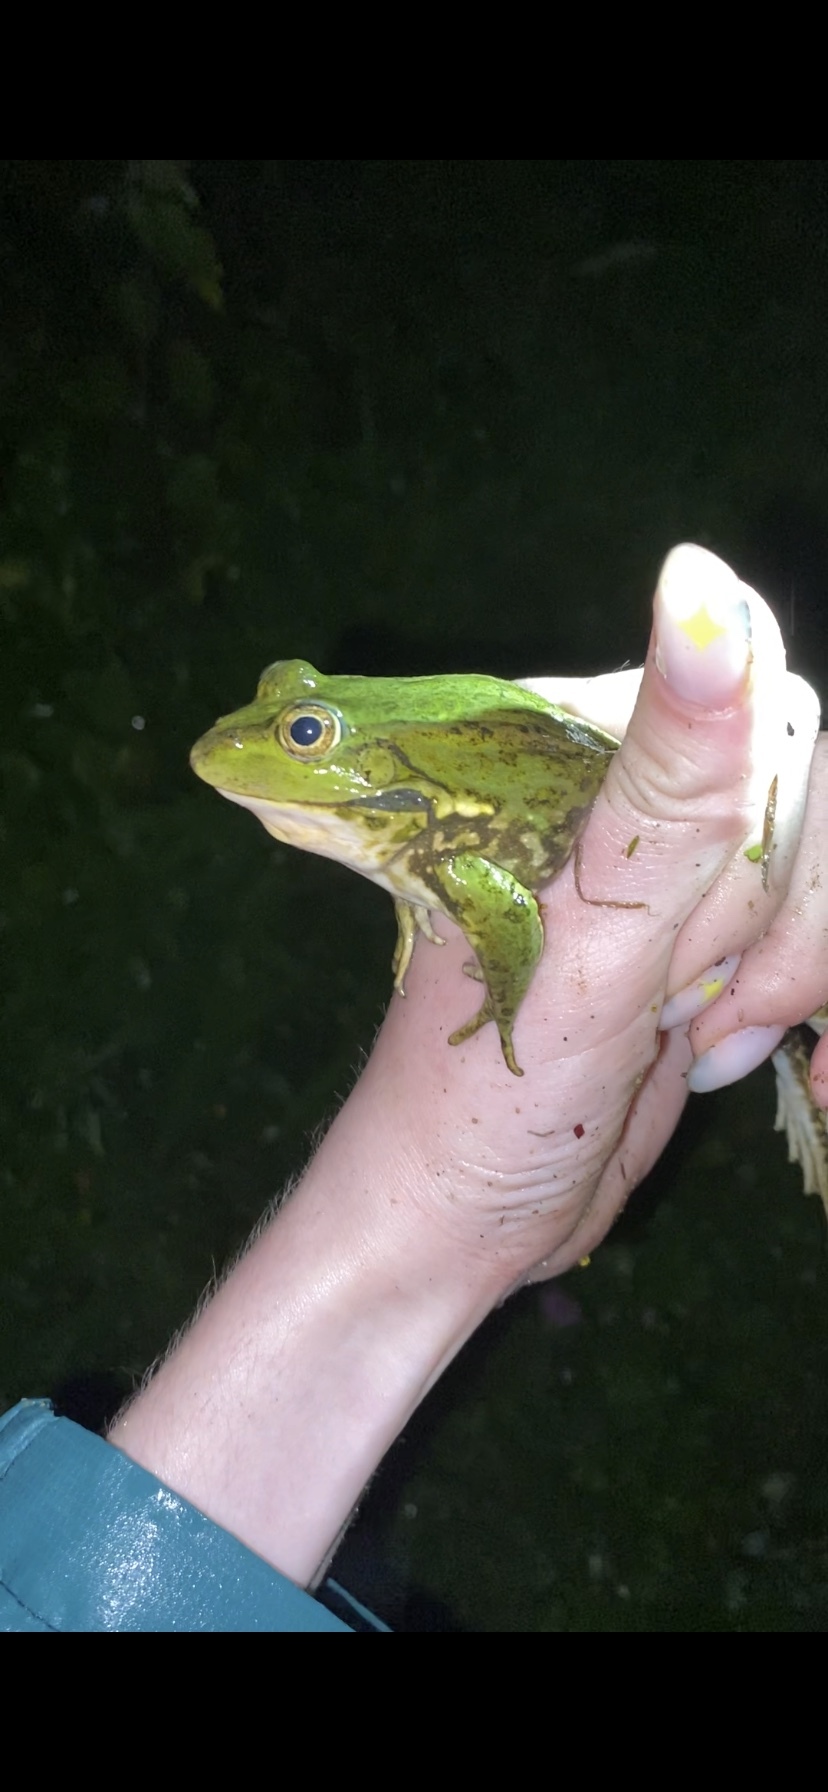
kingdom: Animalia
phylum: Chordata
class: Amphibia
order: Anura
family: Ranidae
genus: Pelophylax
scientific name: Pelophylax ridibundus
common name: Marsh frog
